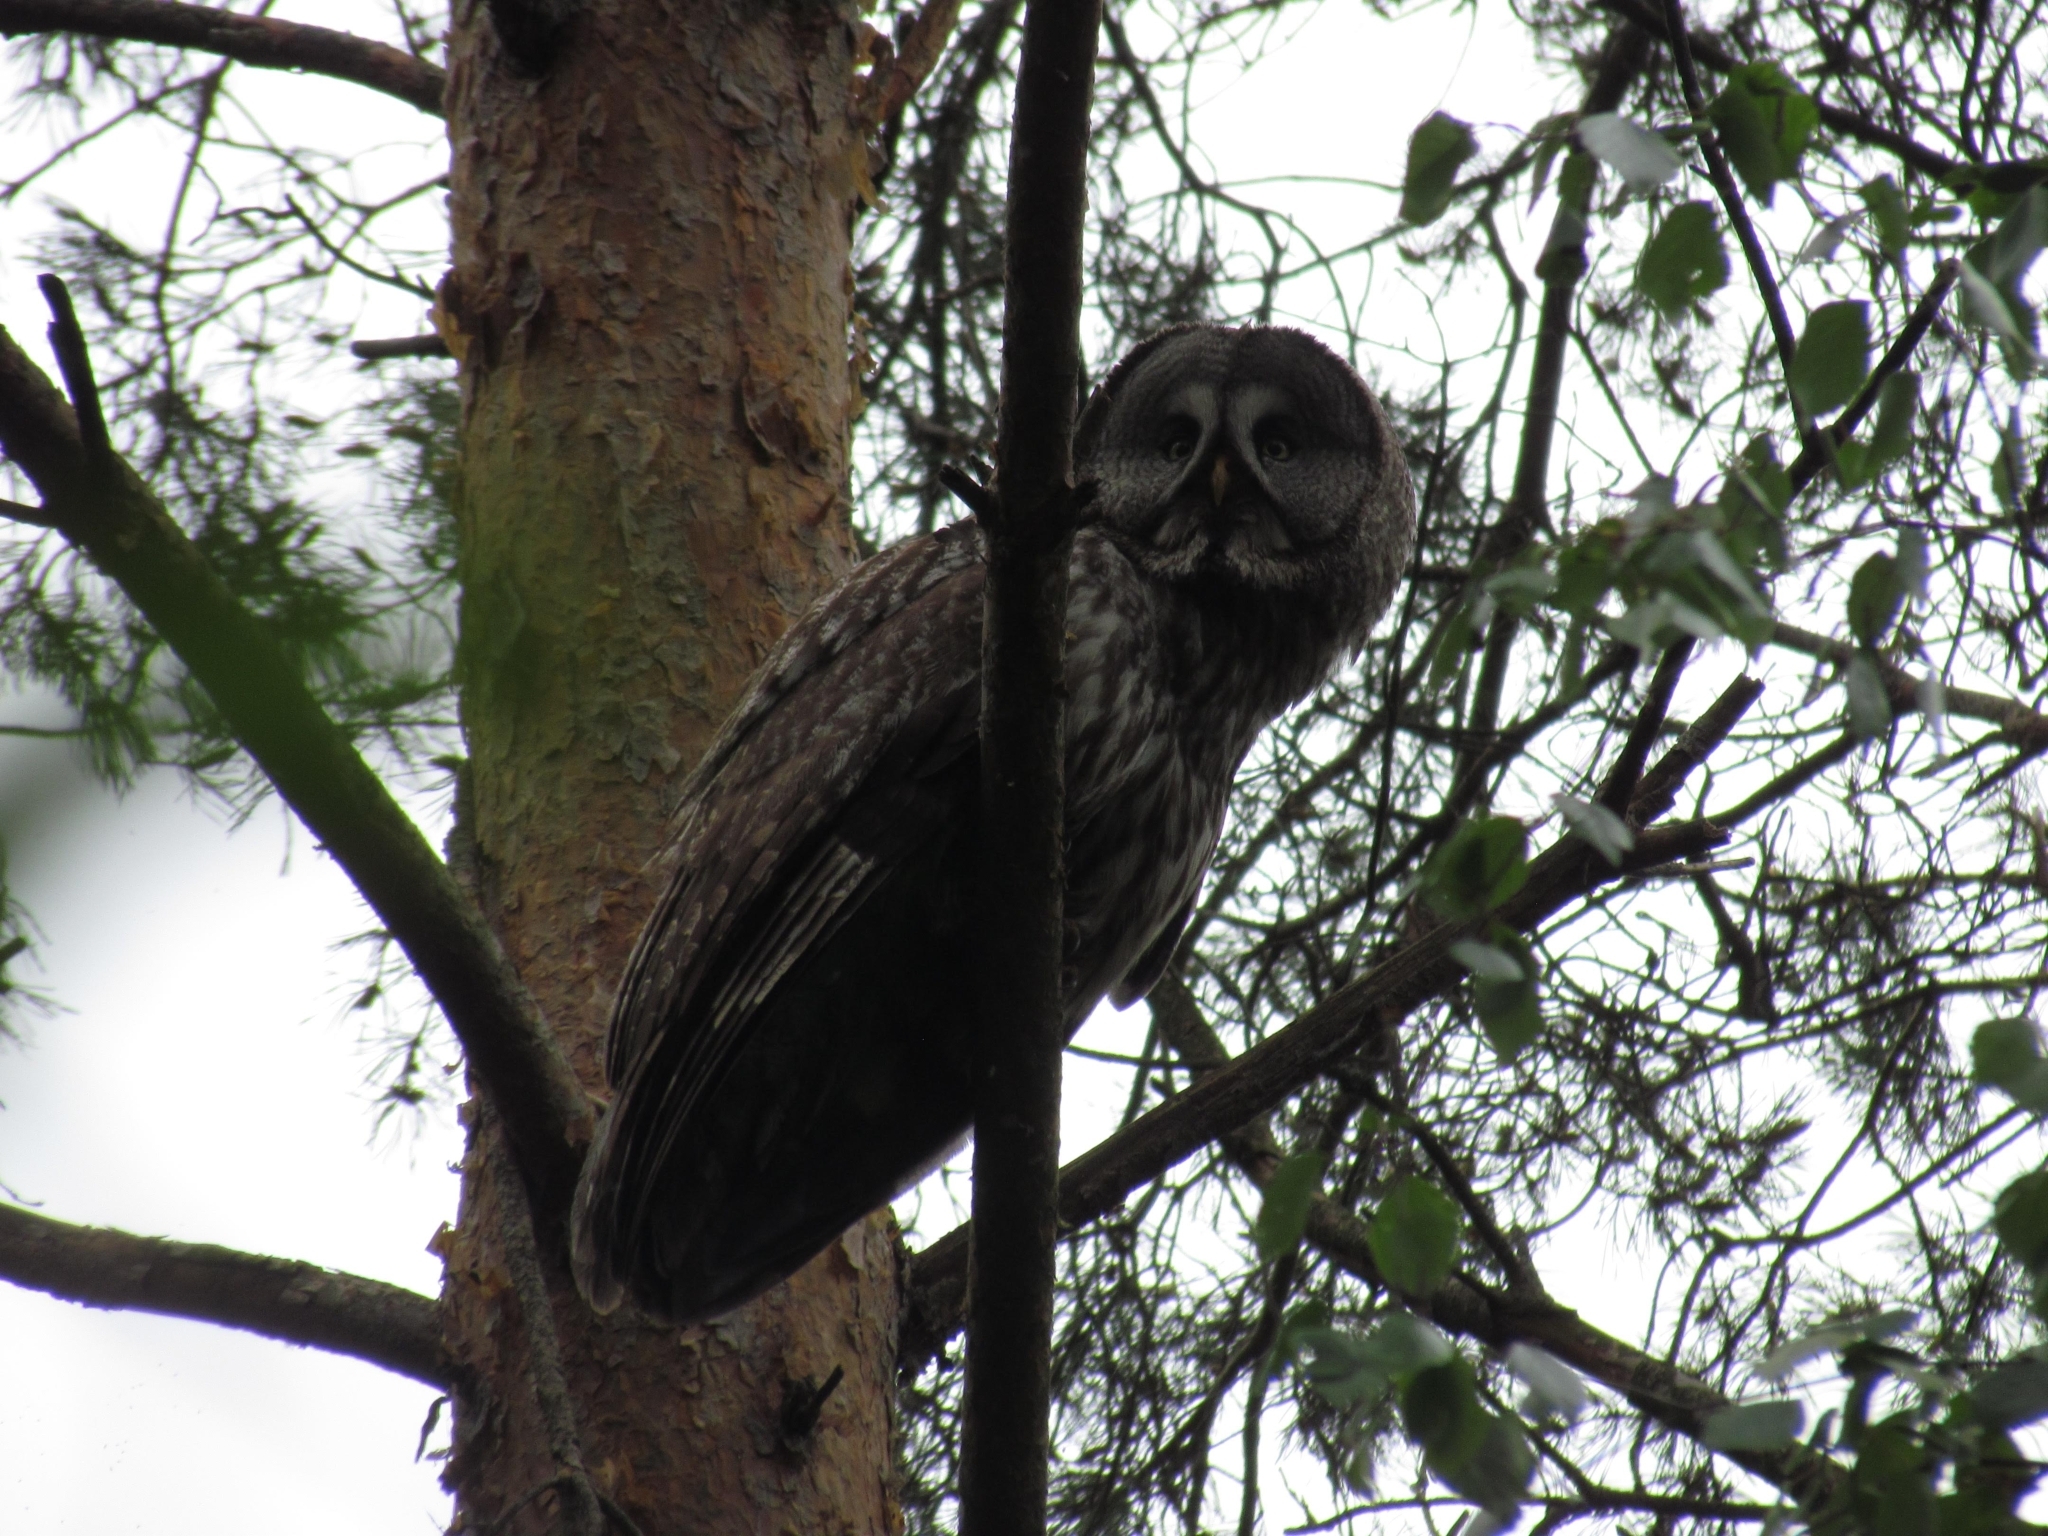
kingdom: Animalia
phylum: Chordata
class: Aves
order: Strigiformes
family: Strigidae
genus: Strix
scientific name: Strix nebulosa
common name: Great grey owl
